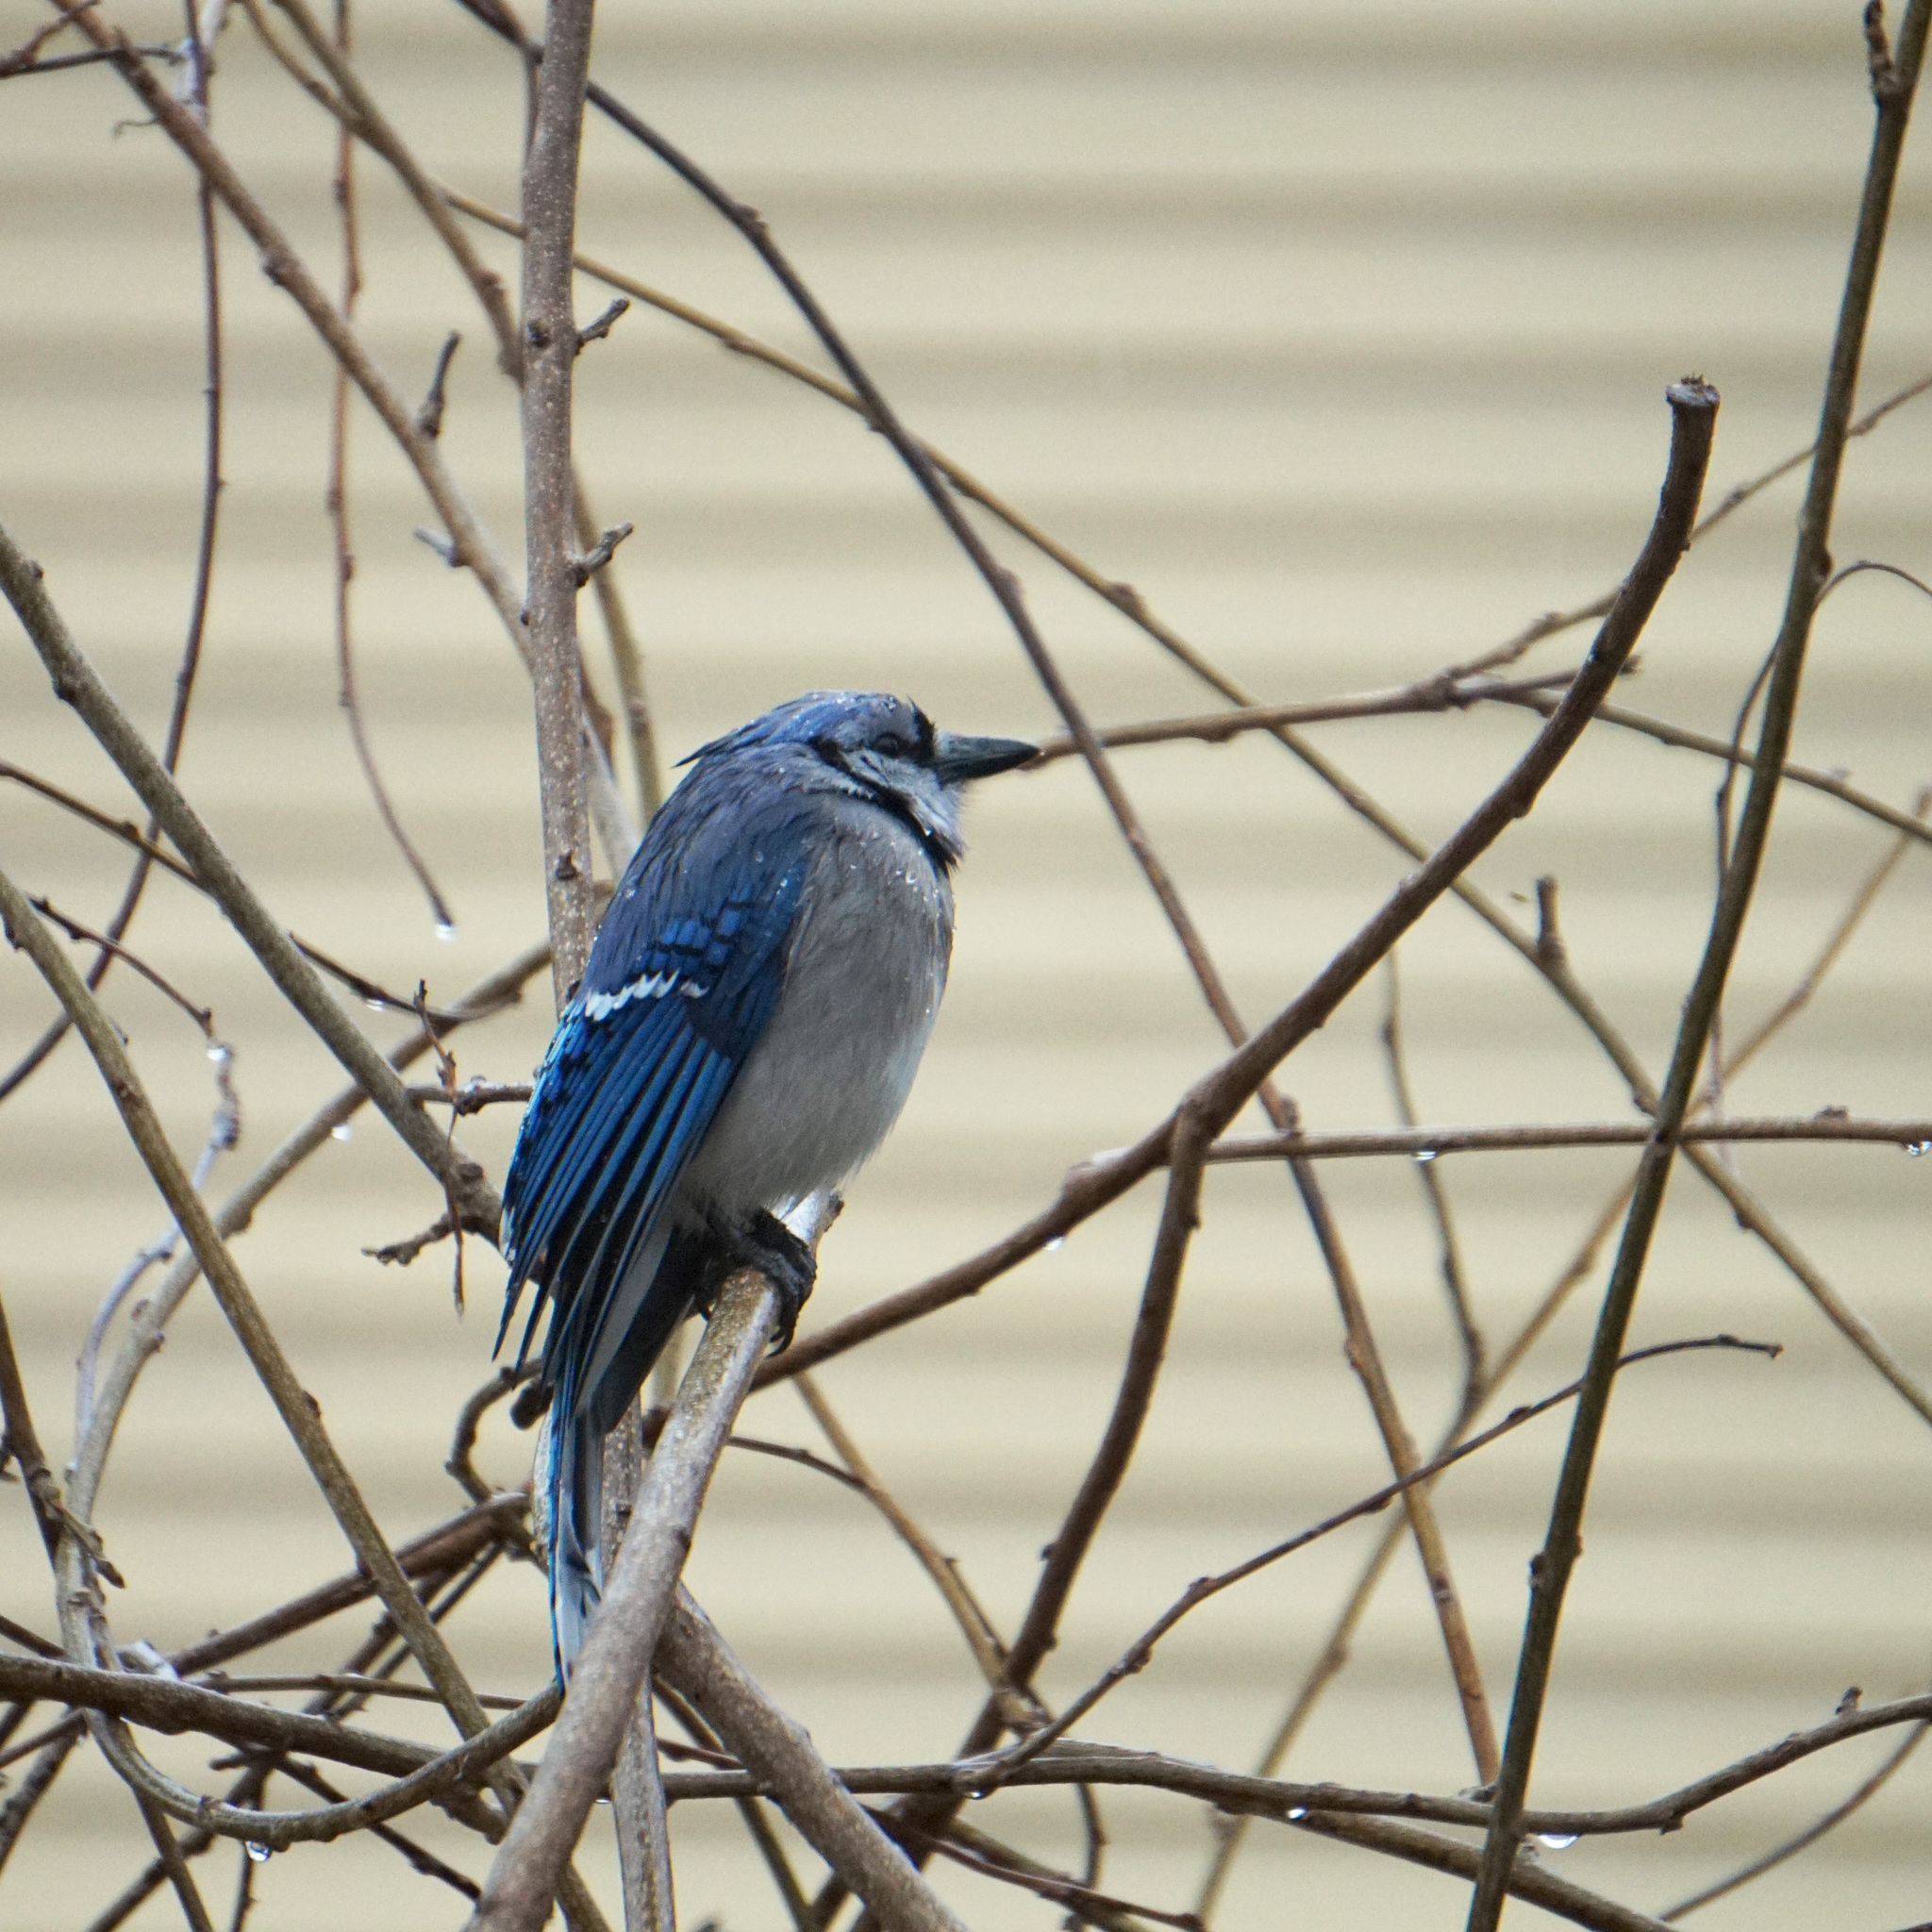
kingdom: Animalia
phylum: Chordata
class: Aves
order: Passeriformes
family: Corvidae
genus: Cyanocitta
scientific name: Cyanocitta cristata
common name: Blue jay
